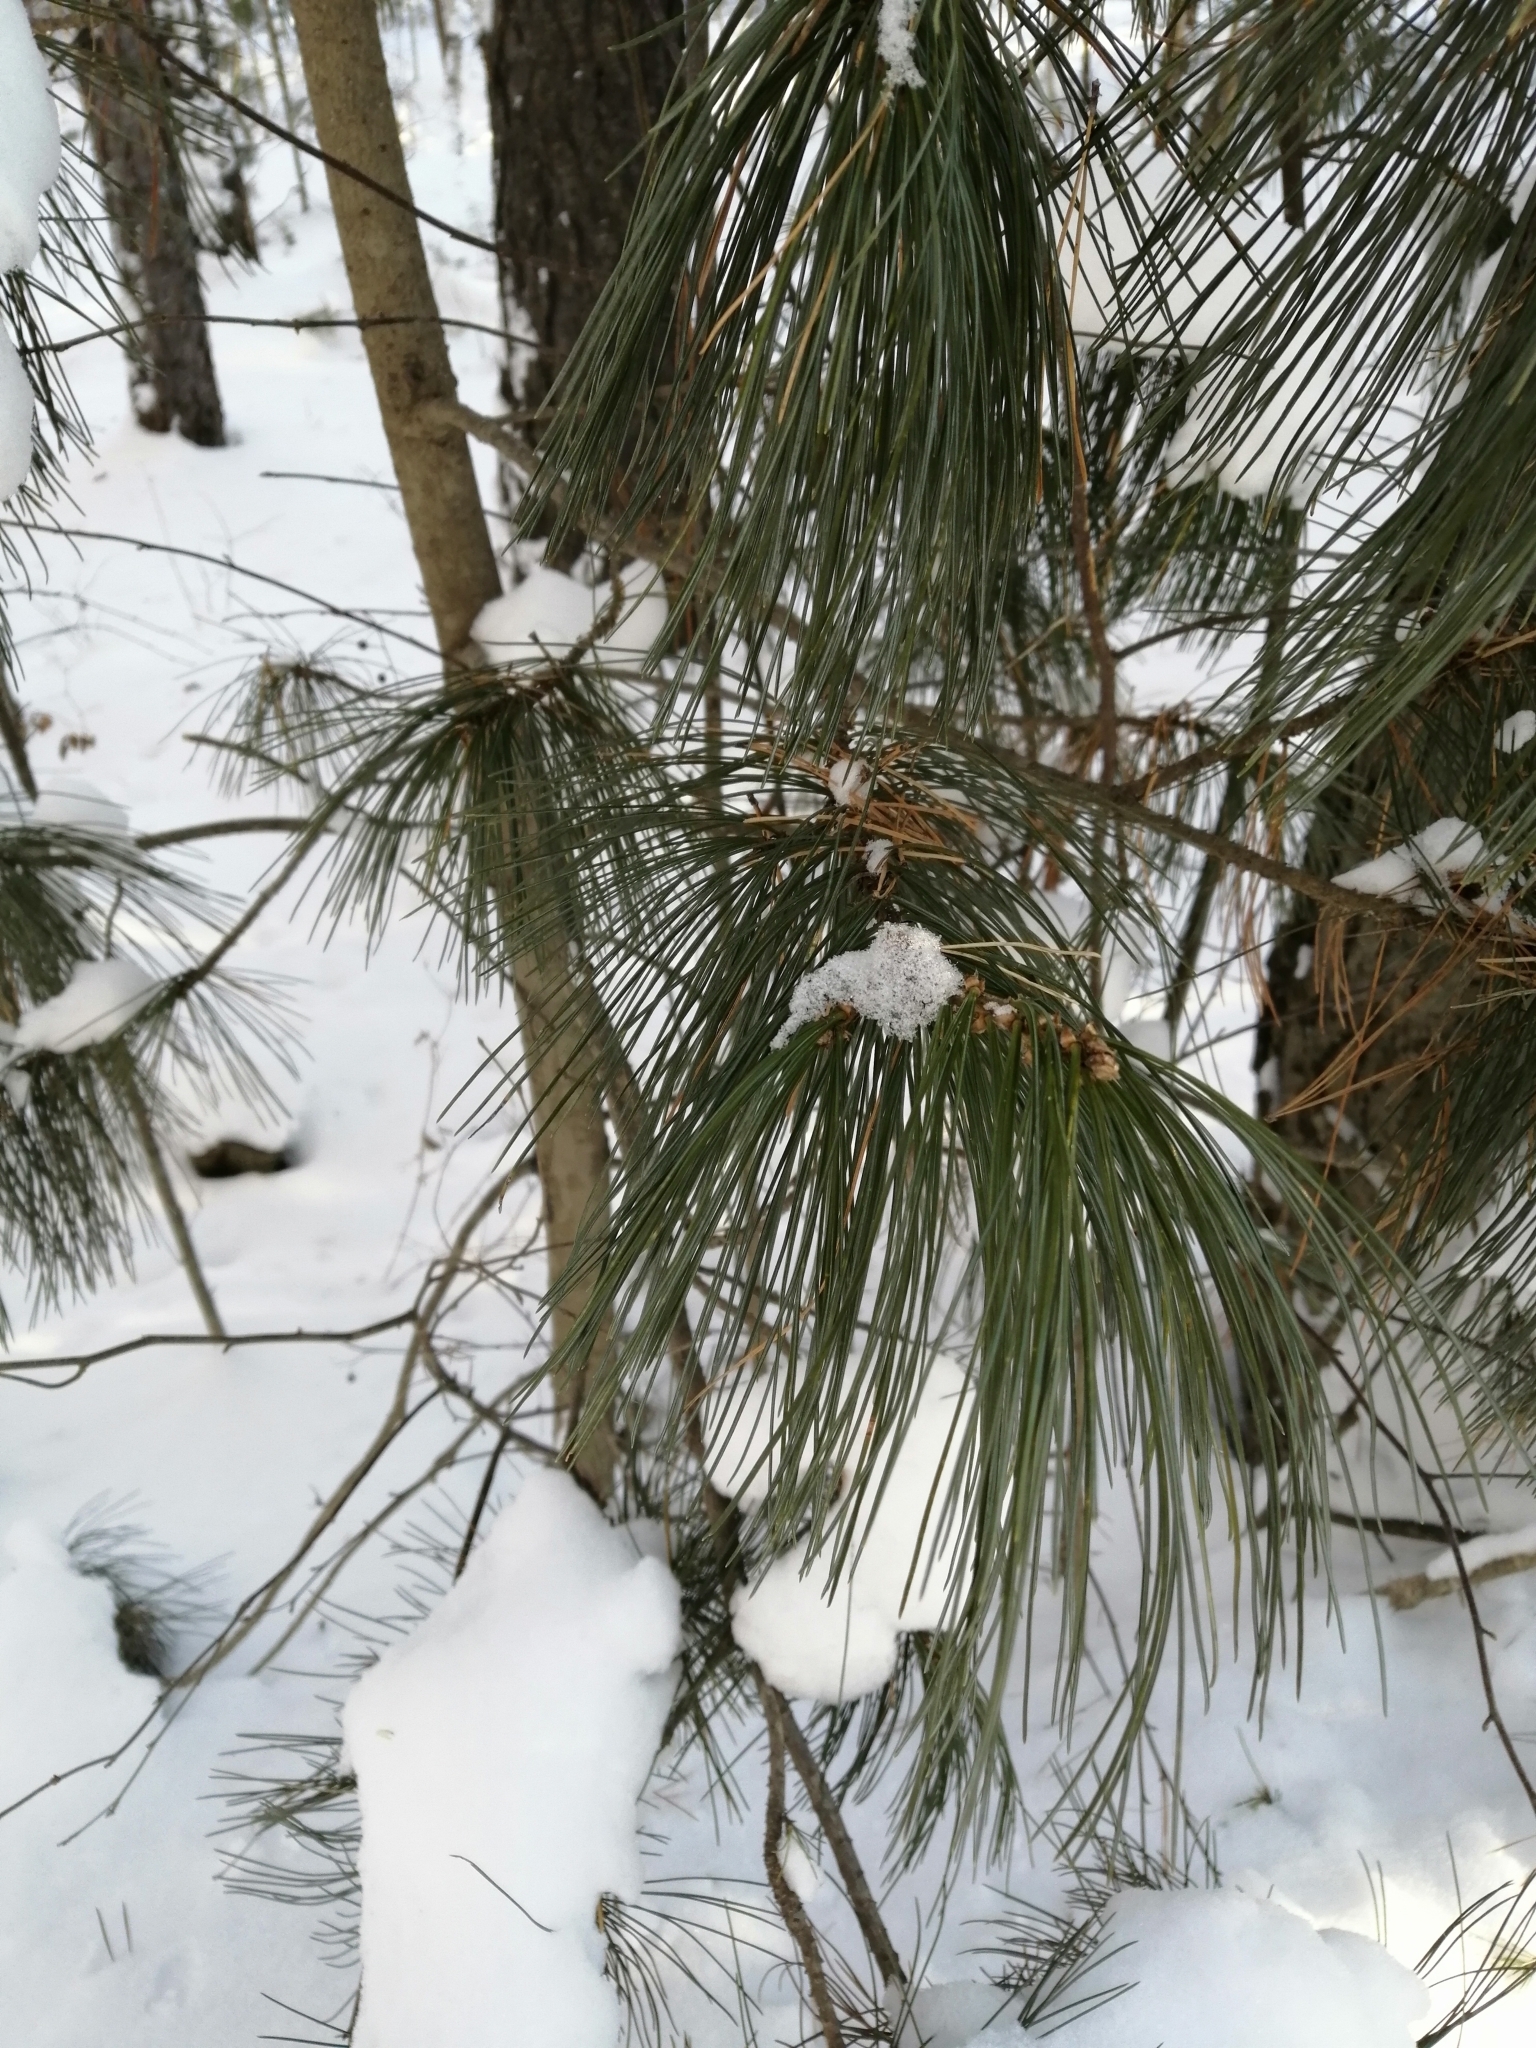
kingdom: Plantae
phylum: Tracheophyta
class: Pinopsida
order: Pinales
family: Pinaceae
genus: Pinus
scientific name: Pinus sibirica
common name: Siberian pine
